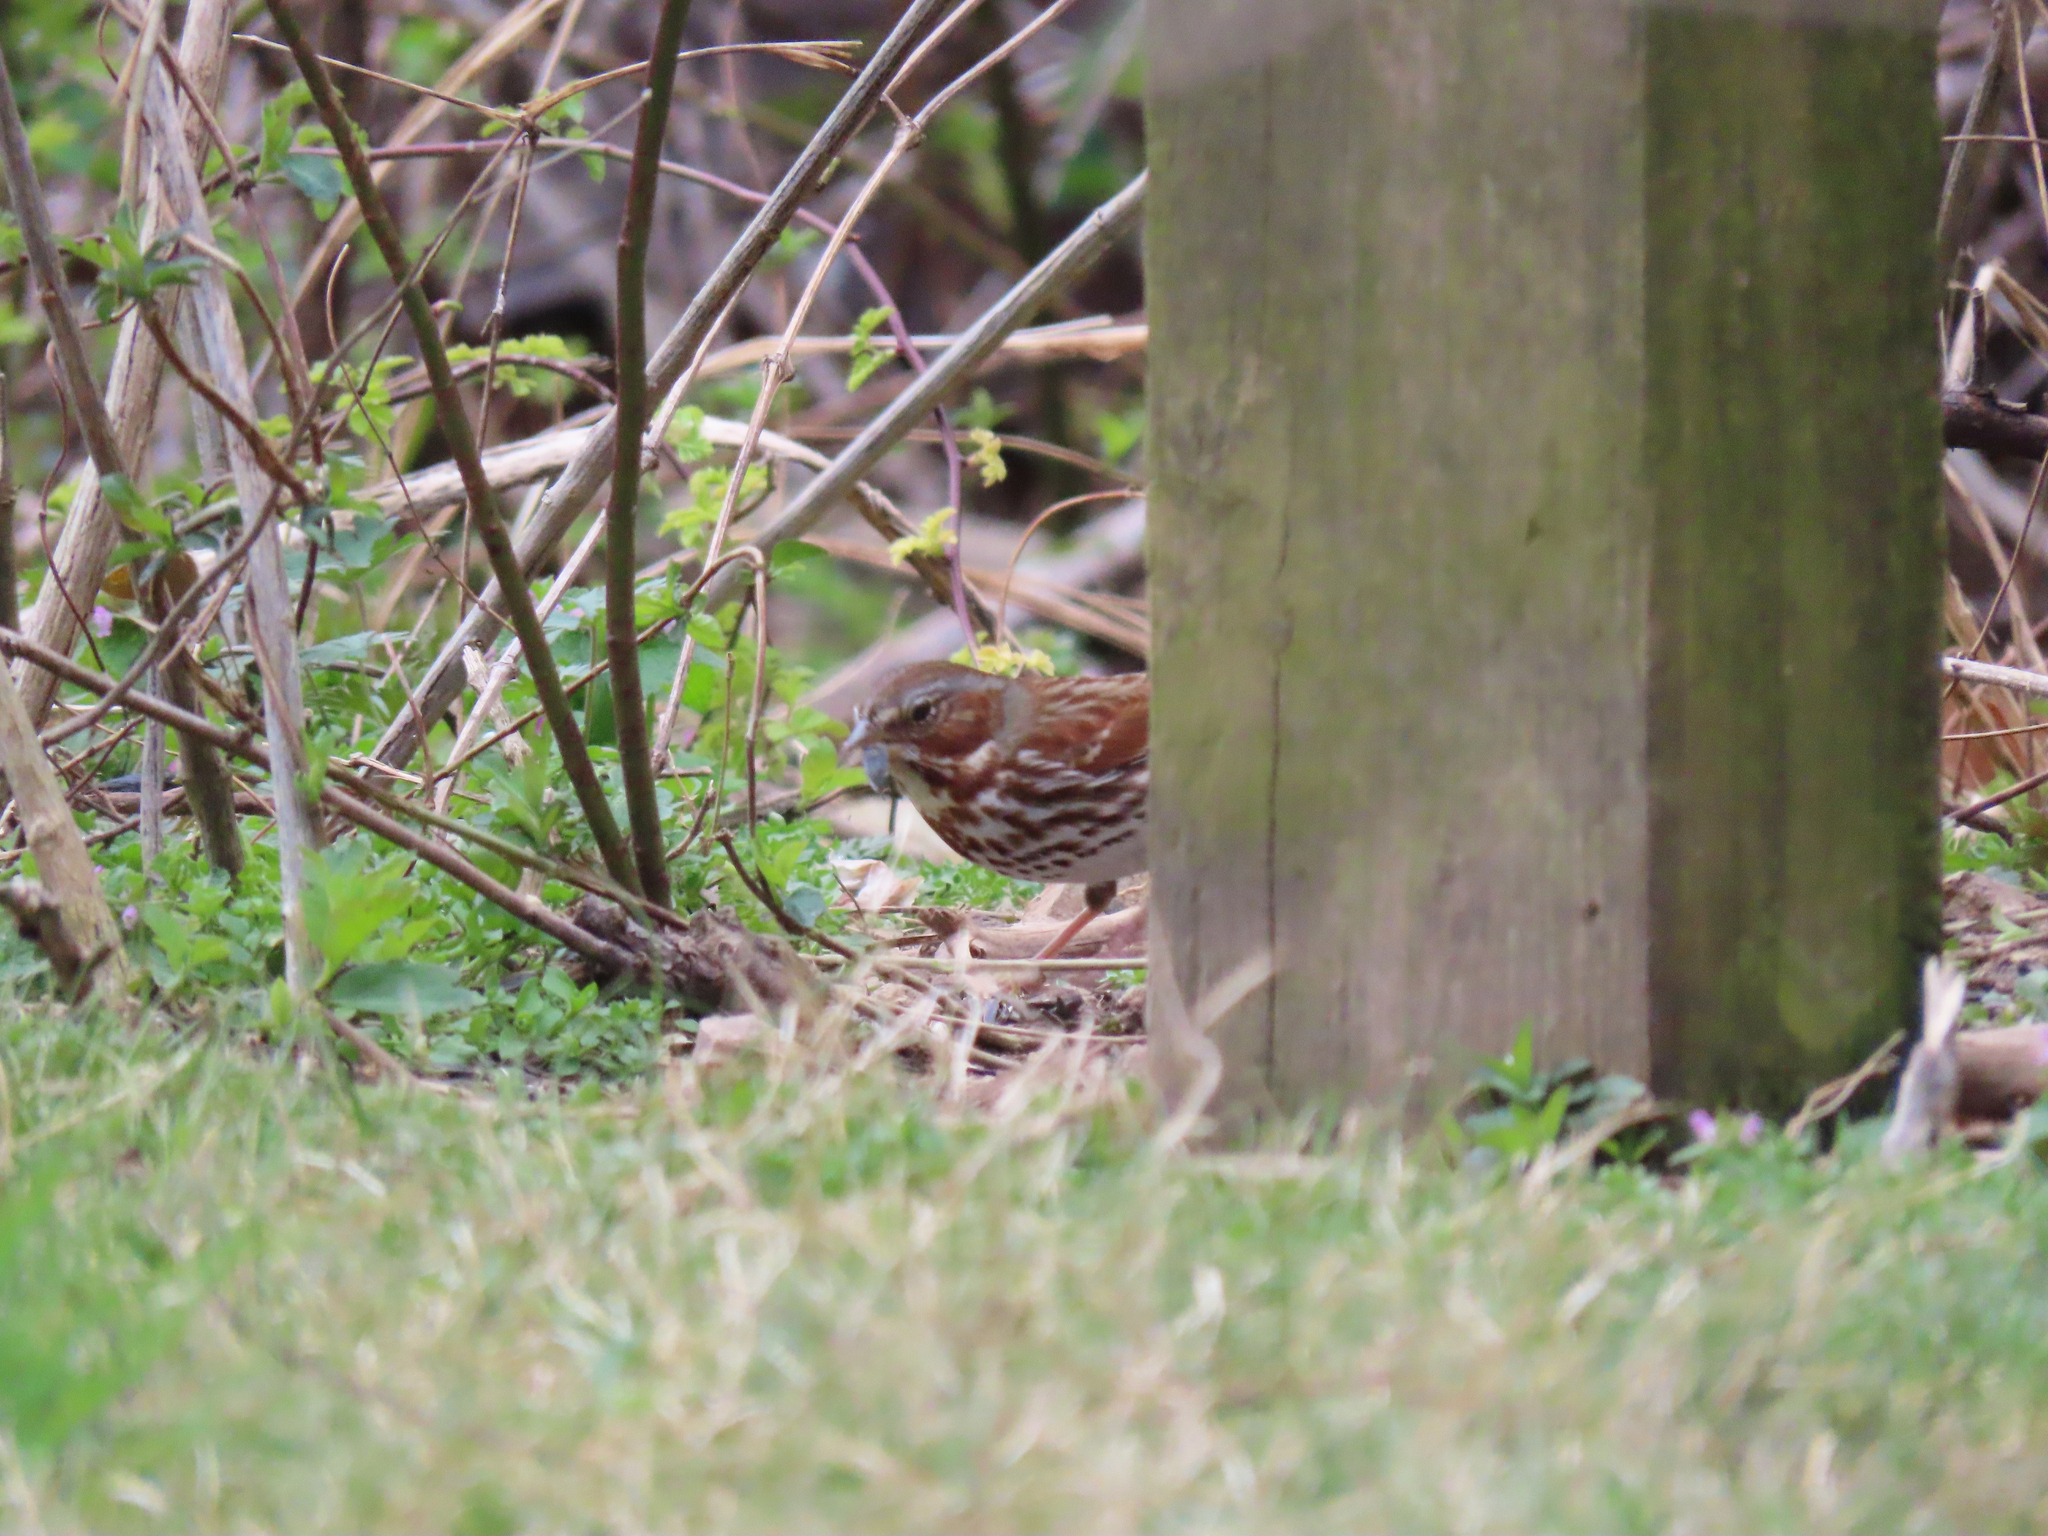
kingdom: Animalia
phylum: Chordata
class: Aves
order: Passeriformes
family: Passerellidae
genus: Passerella
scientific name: Passerella iliaca
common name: Fox sparrow
